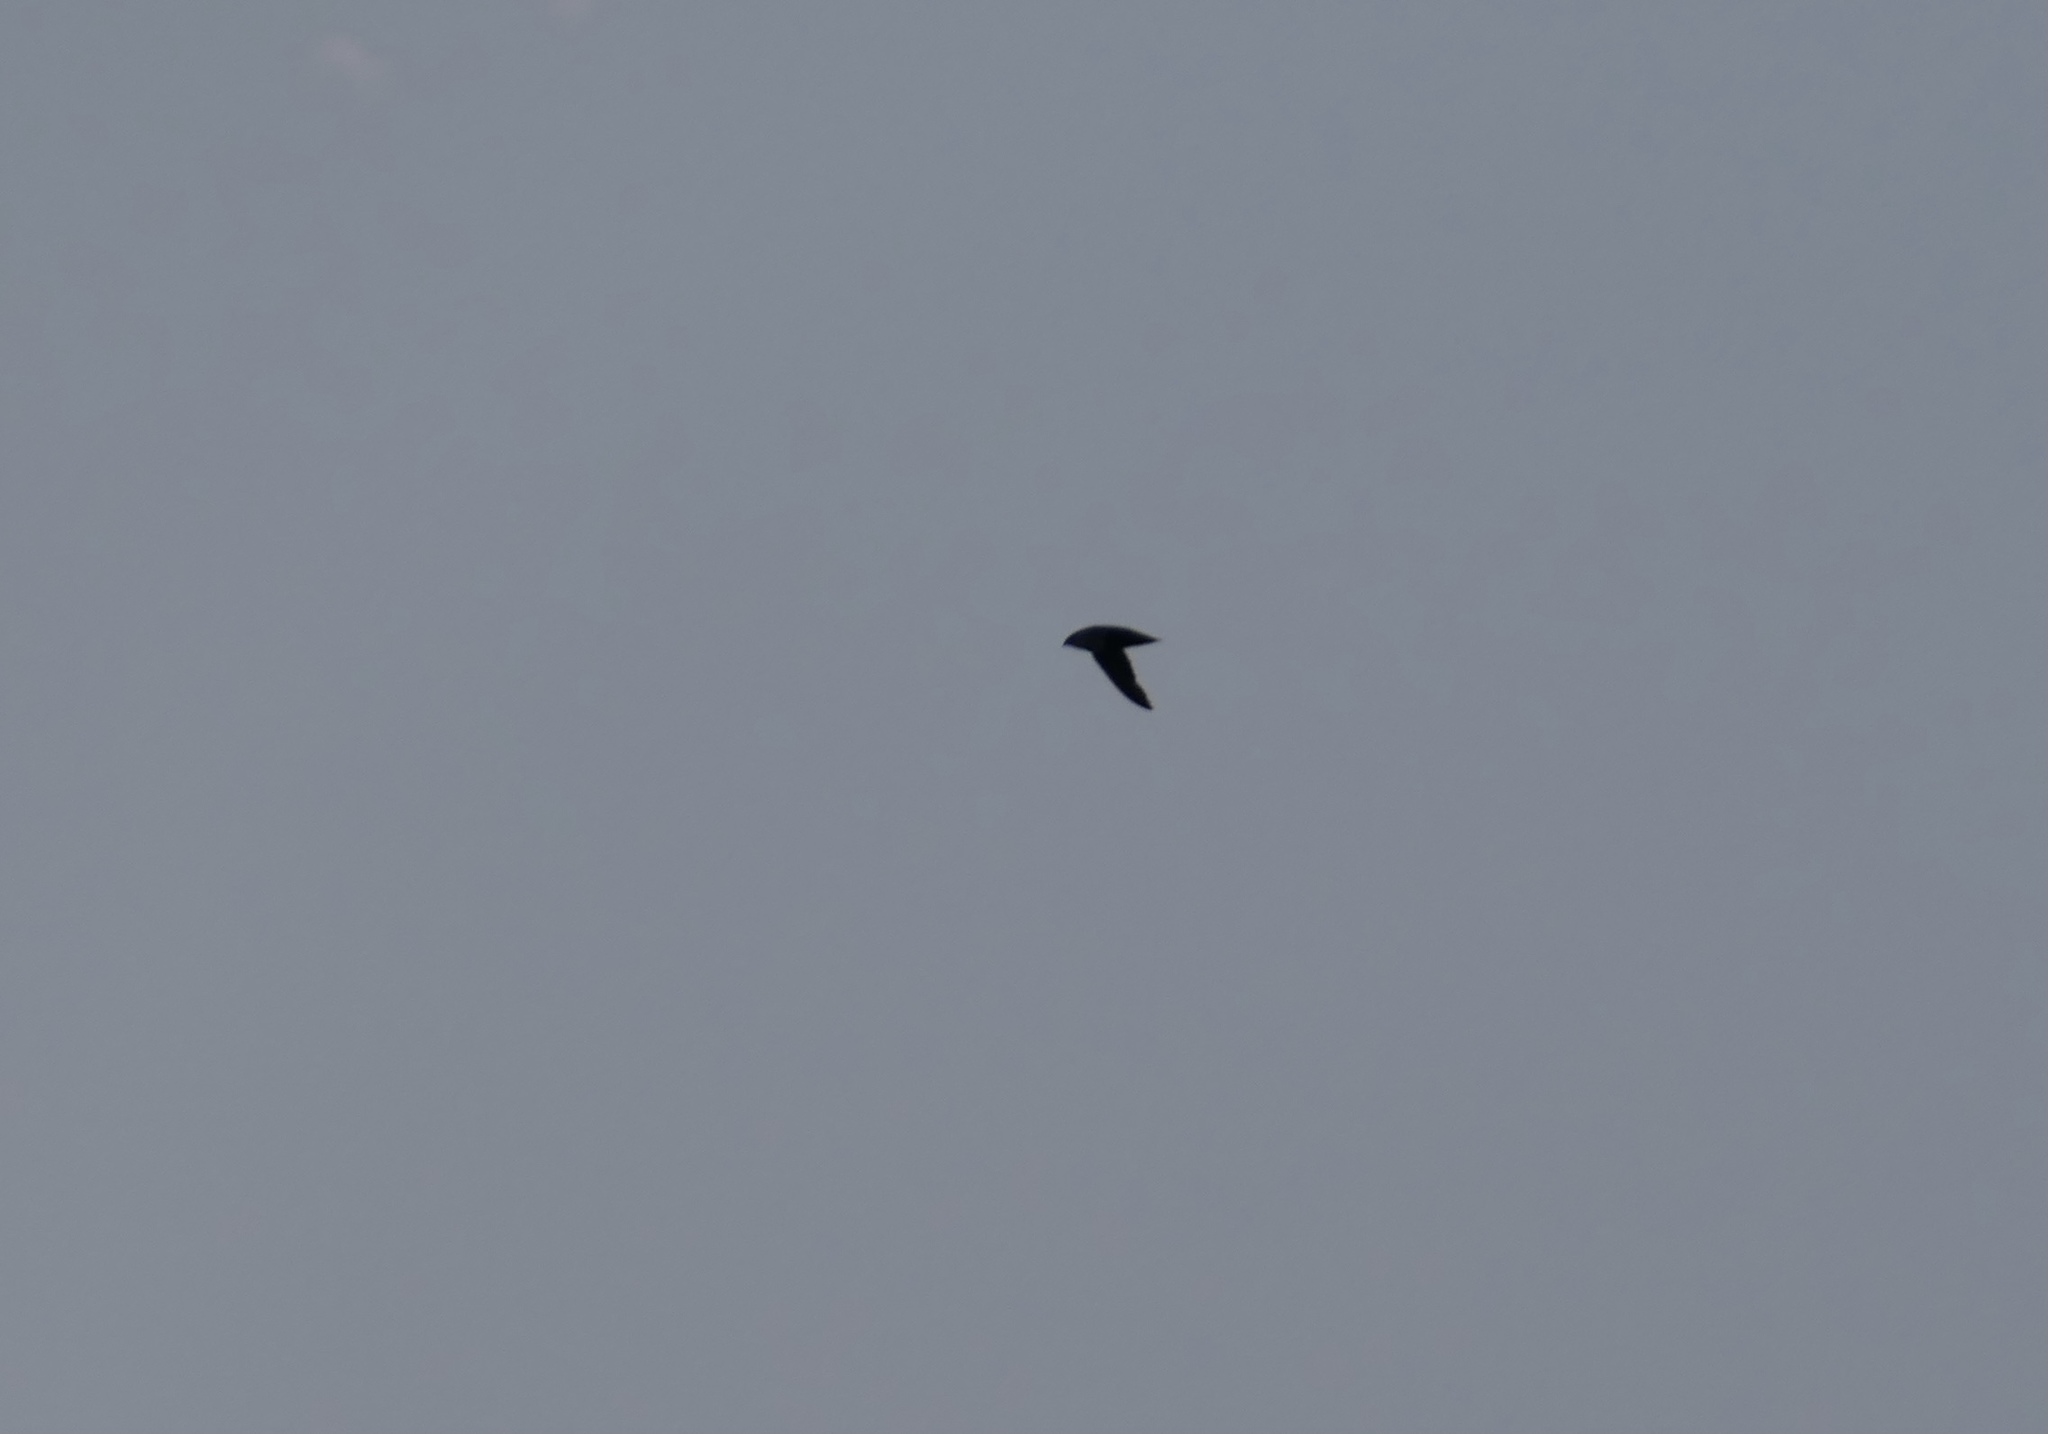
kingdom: Animalia
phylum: Chordata
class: Aves
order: Apodiformes
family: Apodidae
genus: Chaetura
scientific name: Chaetura pelagica
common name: Chimney swift
